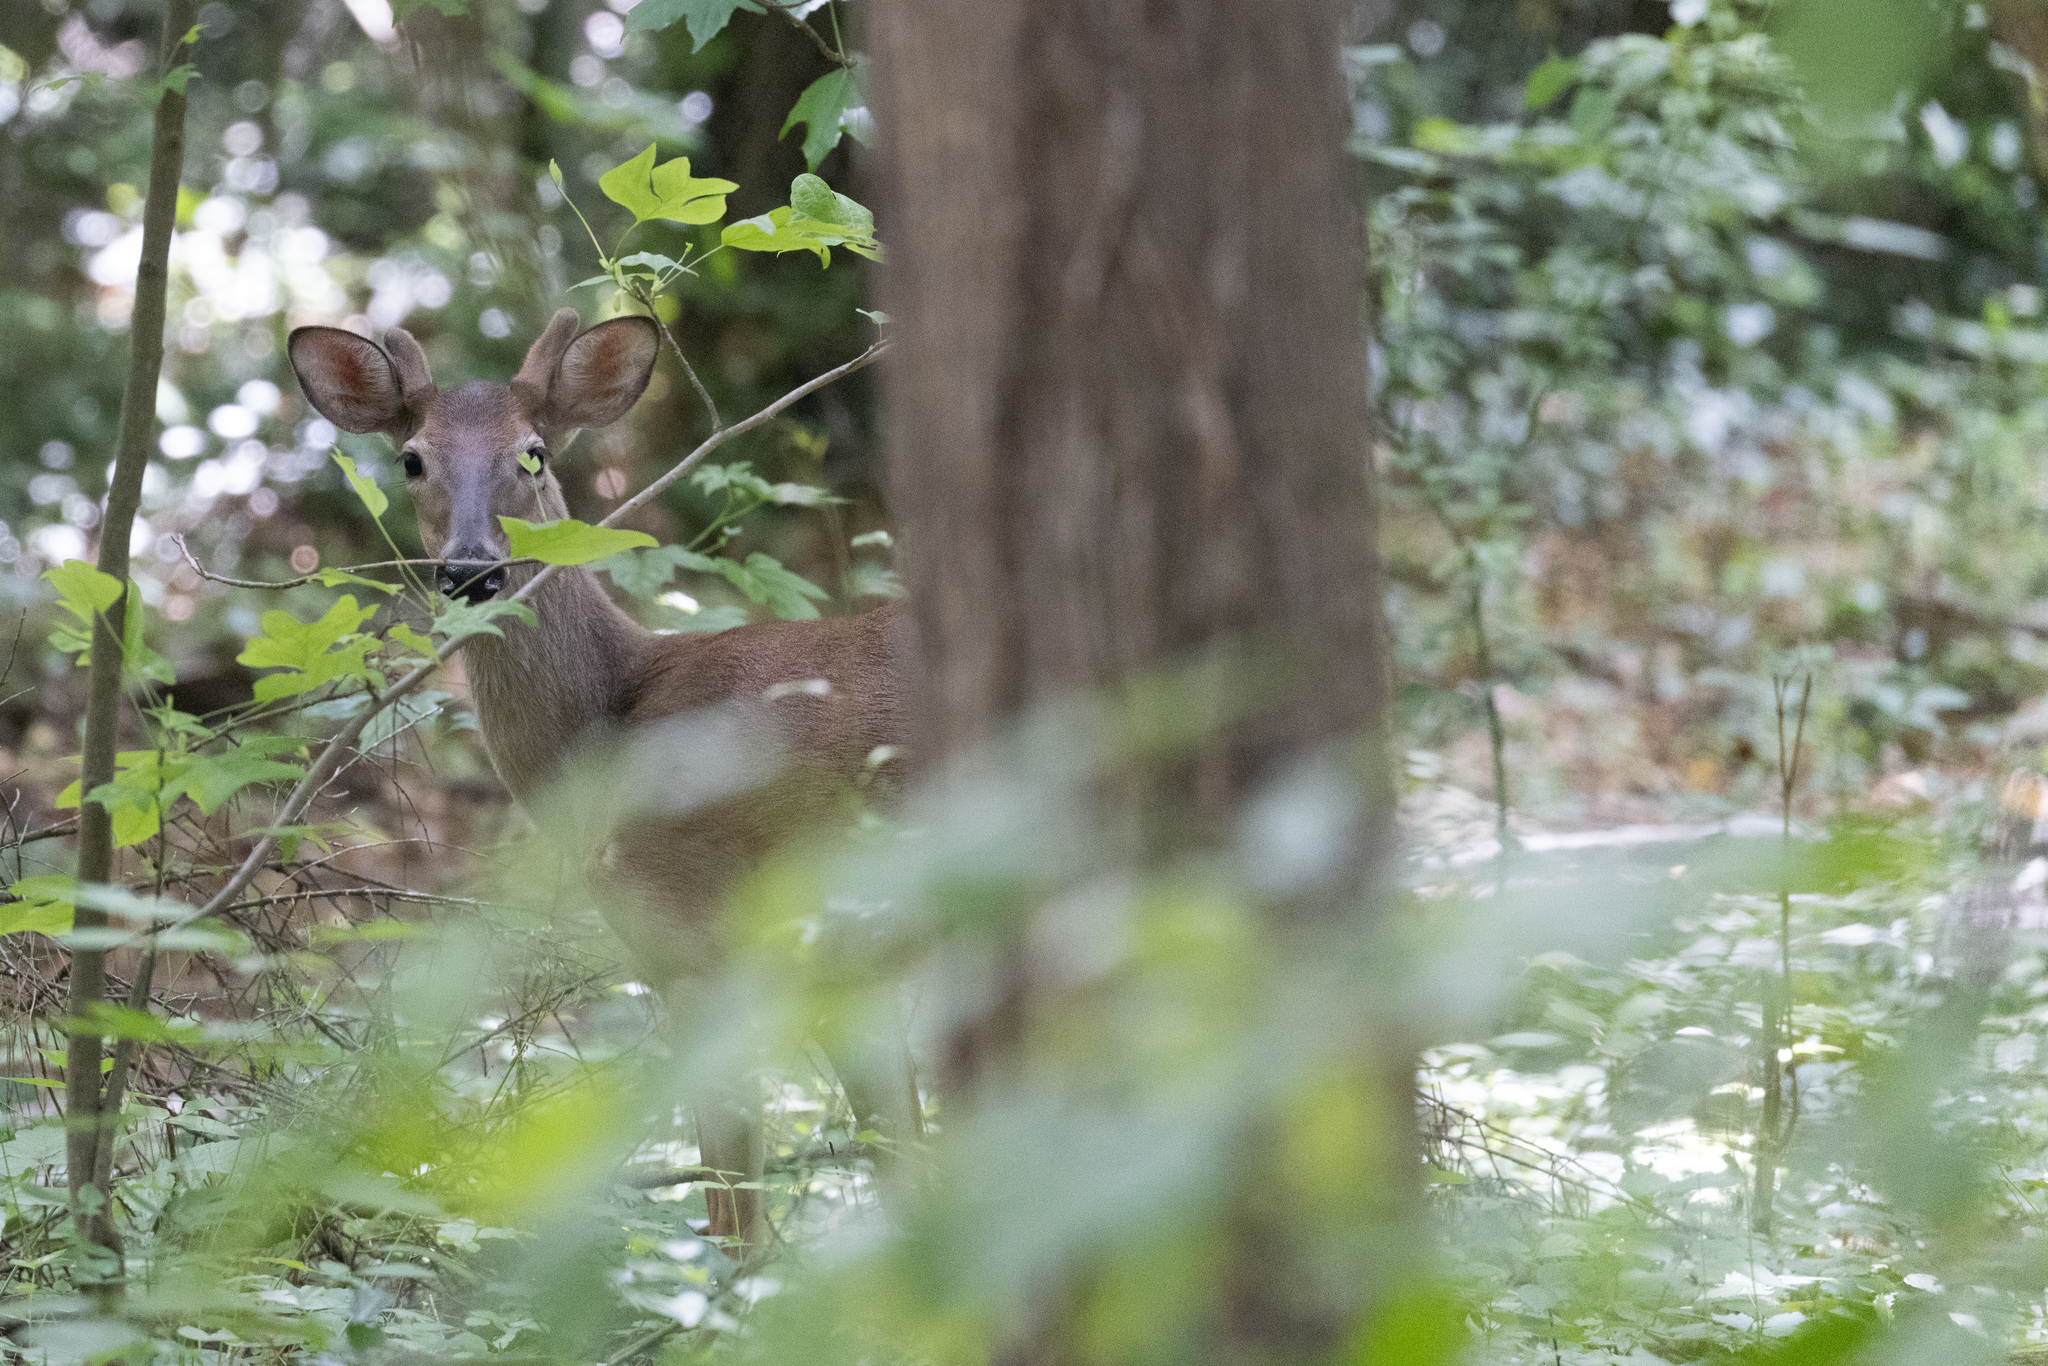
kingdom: Animalia
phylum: Chordata
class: Mammalia
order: Artiodactyla
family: Cervidae
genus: Odocoileus
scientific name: Odocoileus virginianus
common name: White-tailed deer
